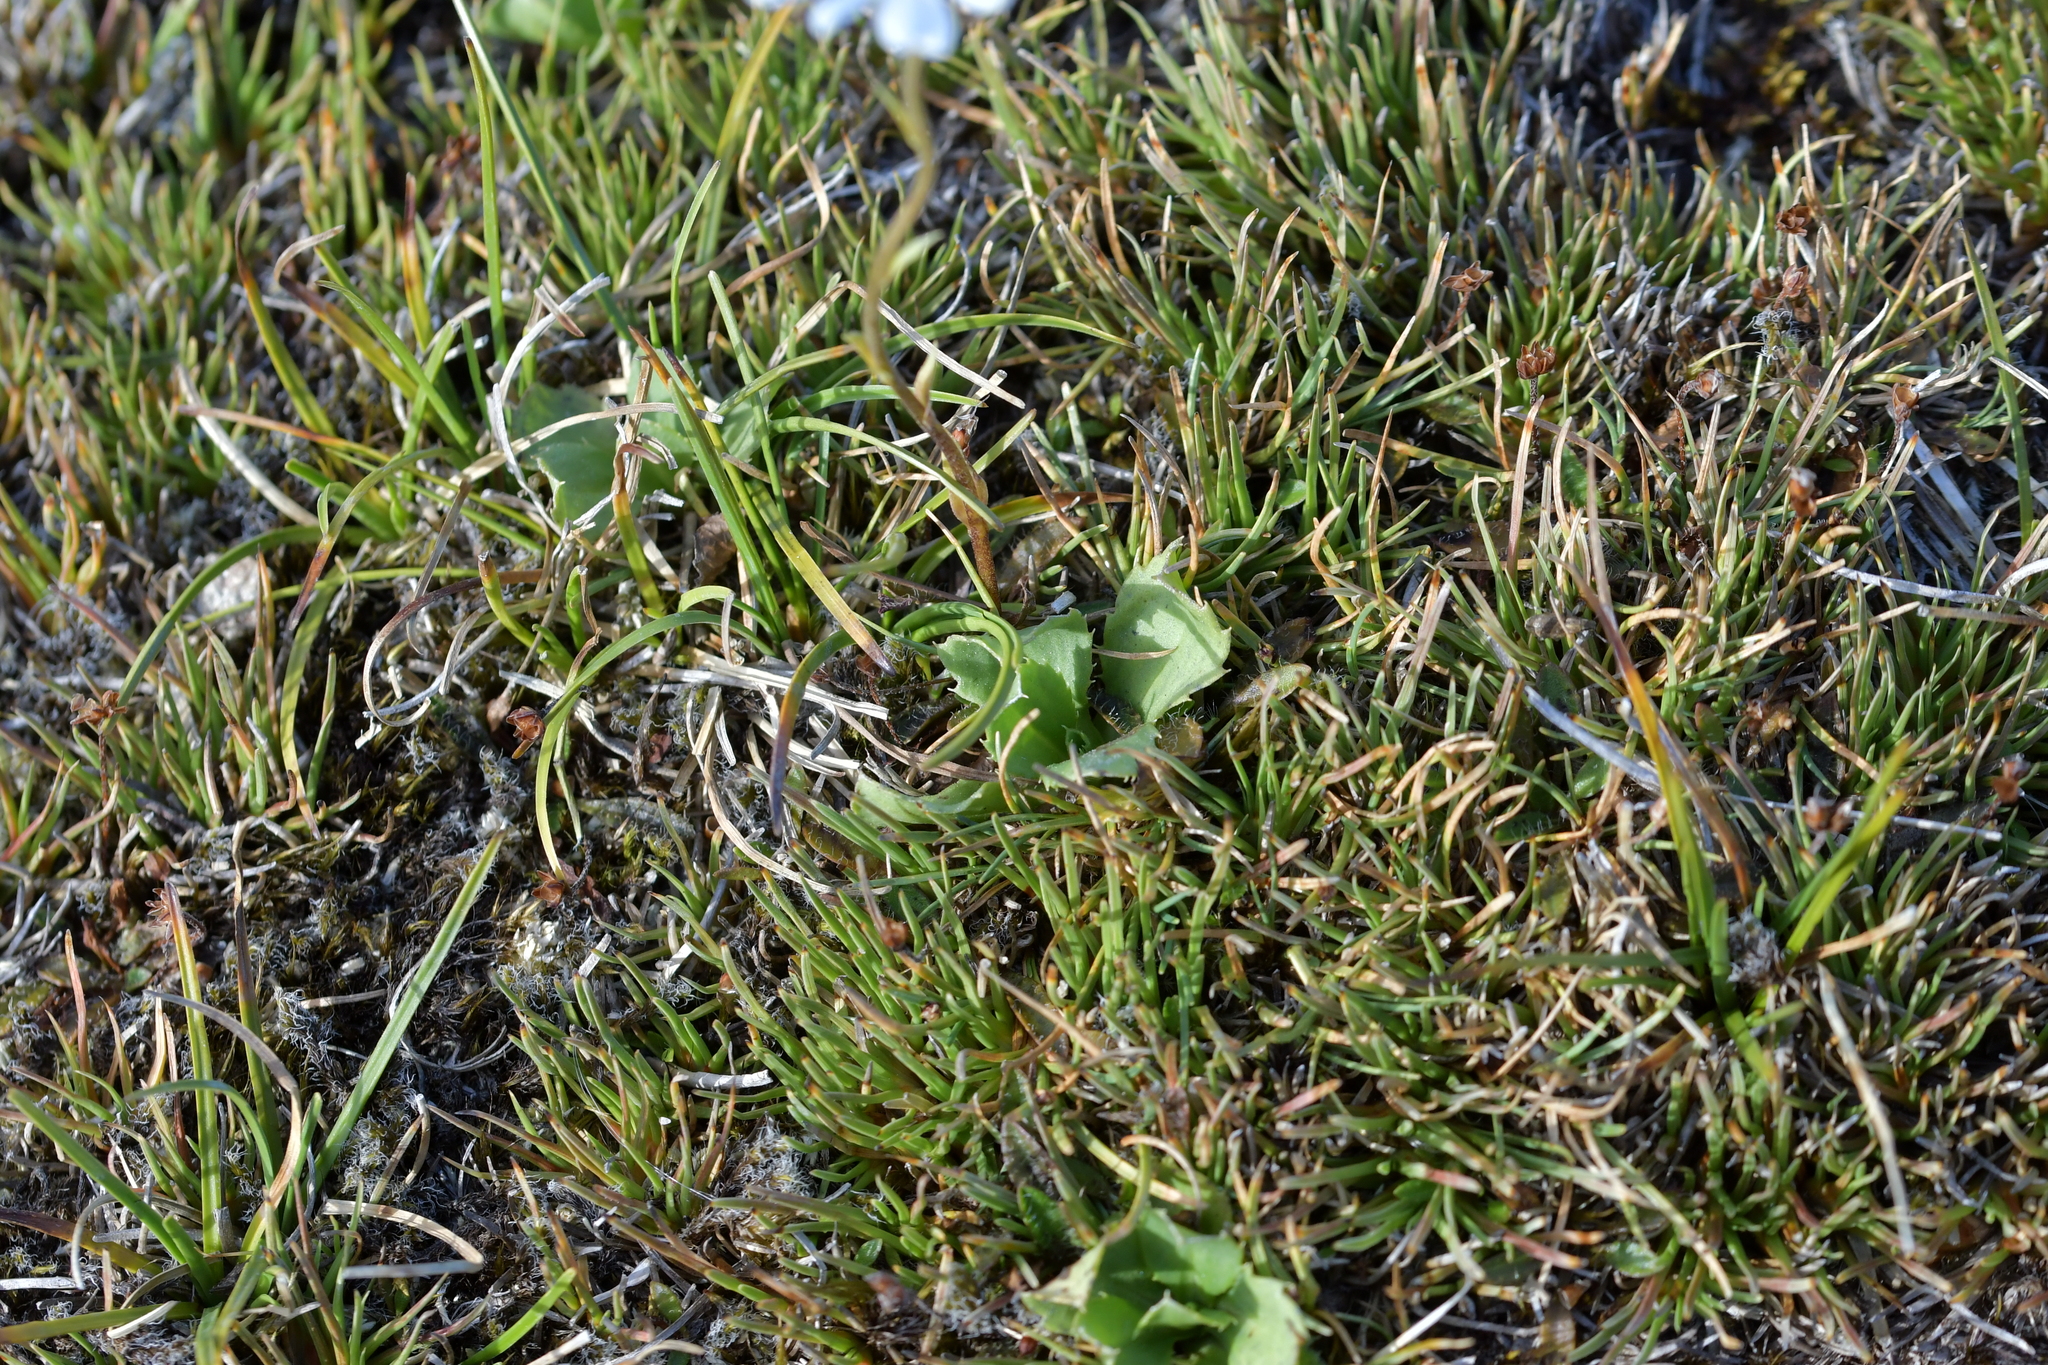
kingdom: Plantae
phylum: Tracheophyta
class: Magnoliopsida
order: Asterales
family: Asteraceae
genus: Celmisia
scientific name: Celmisia glandulosa
